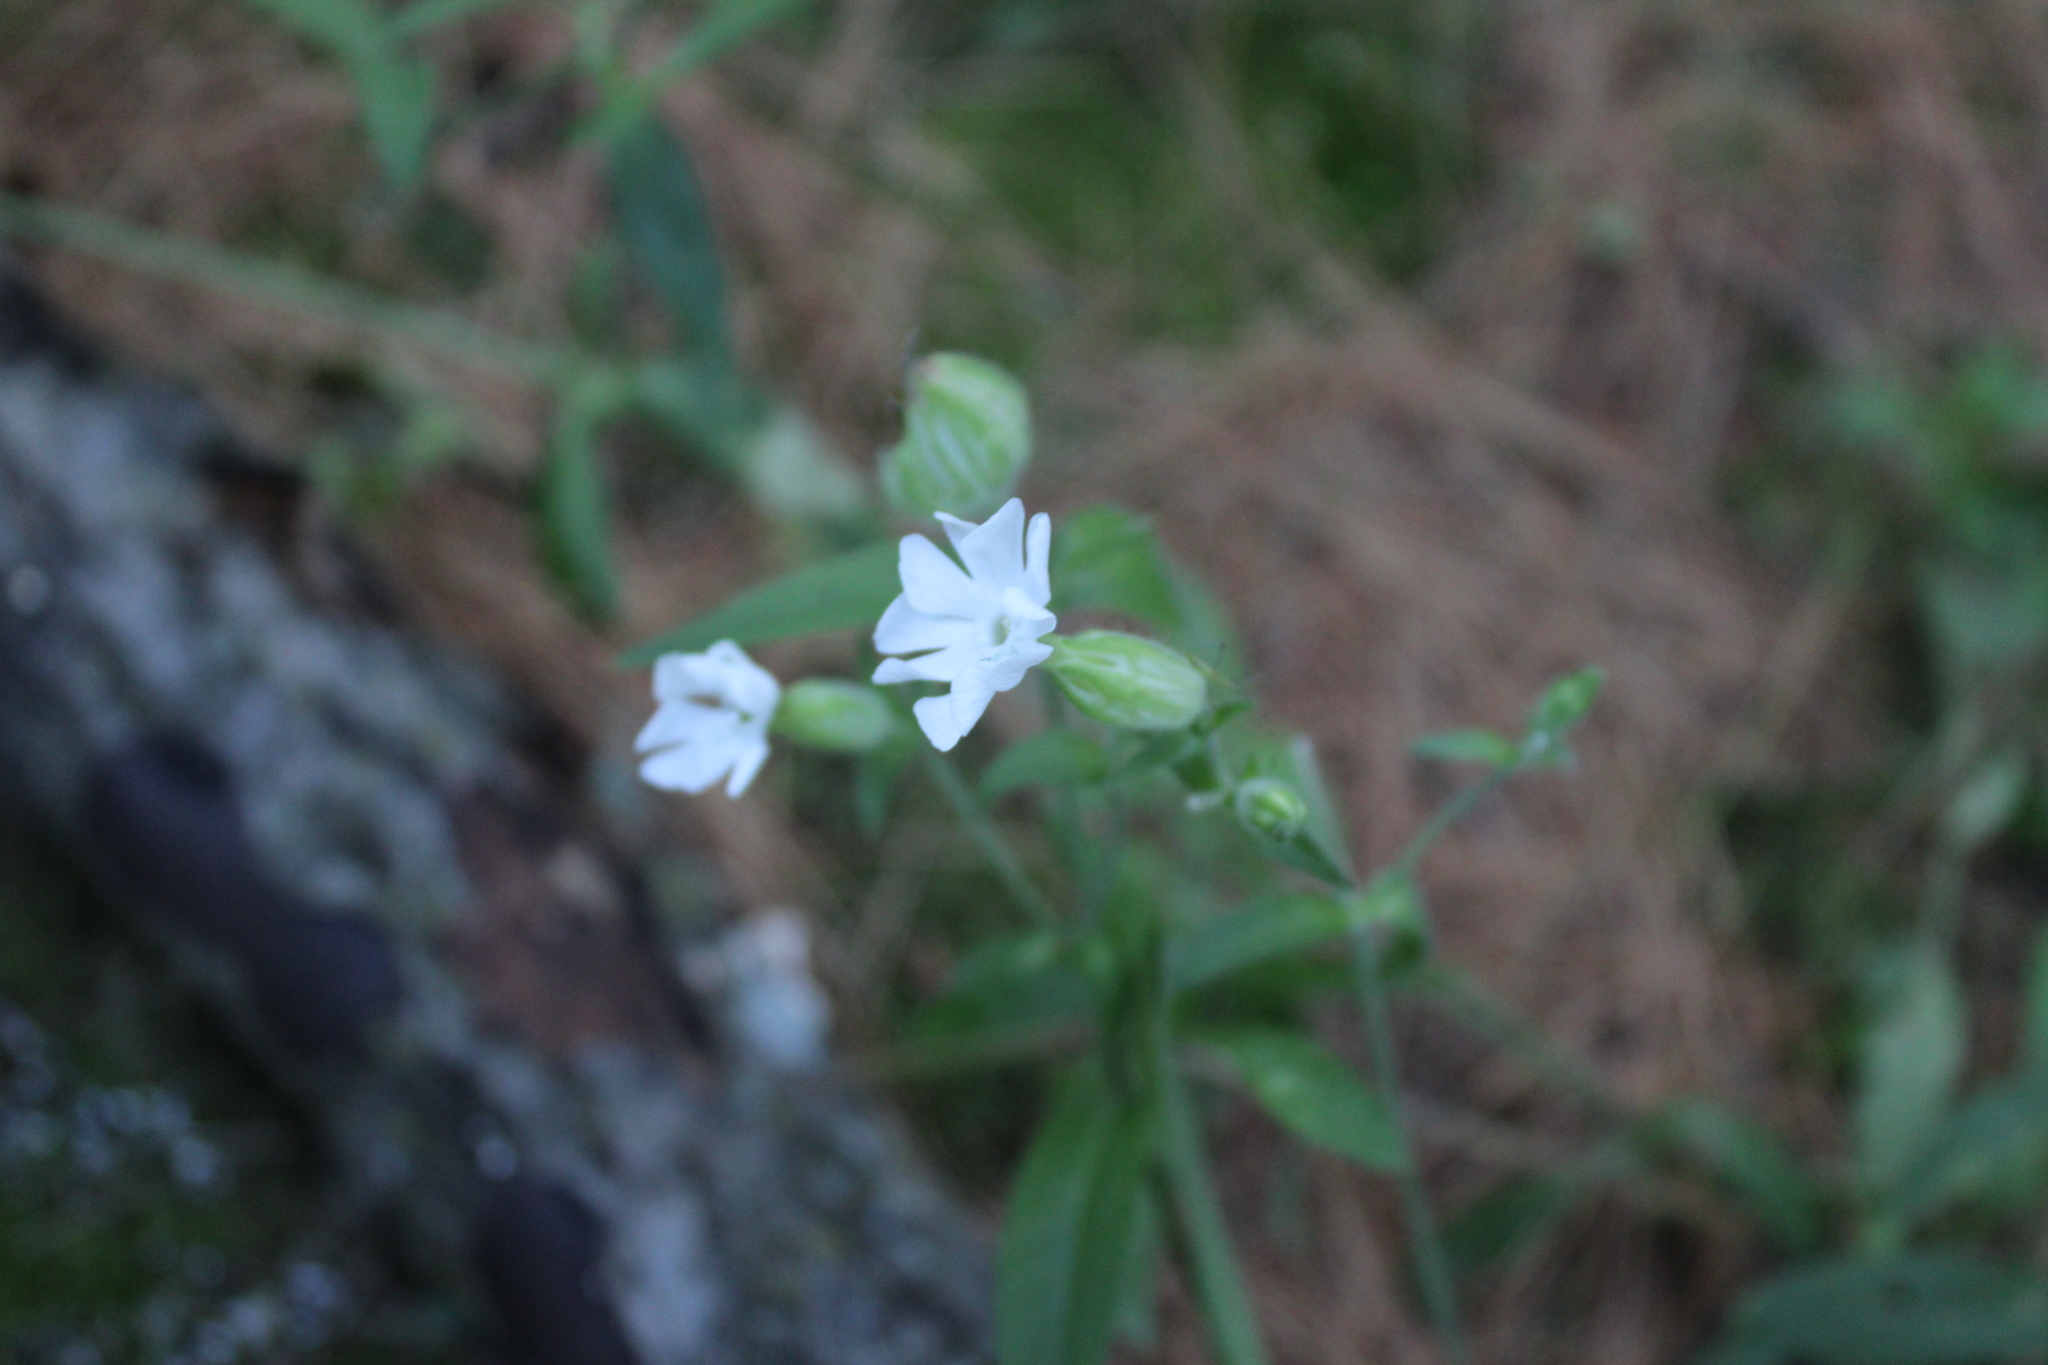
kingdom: Plantae
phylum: Tracheophyta
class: Magnoliopsida
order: Caryophyllales
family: Caryophyllaceae
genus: Silene
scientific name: Silene latifolia
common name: White campion
